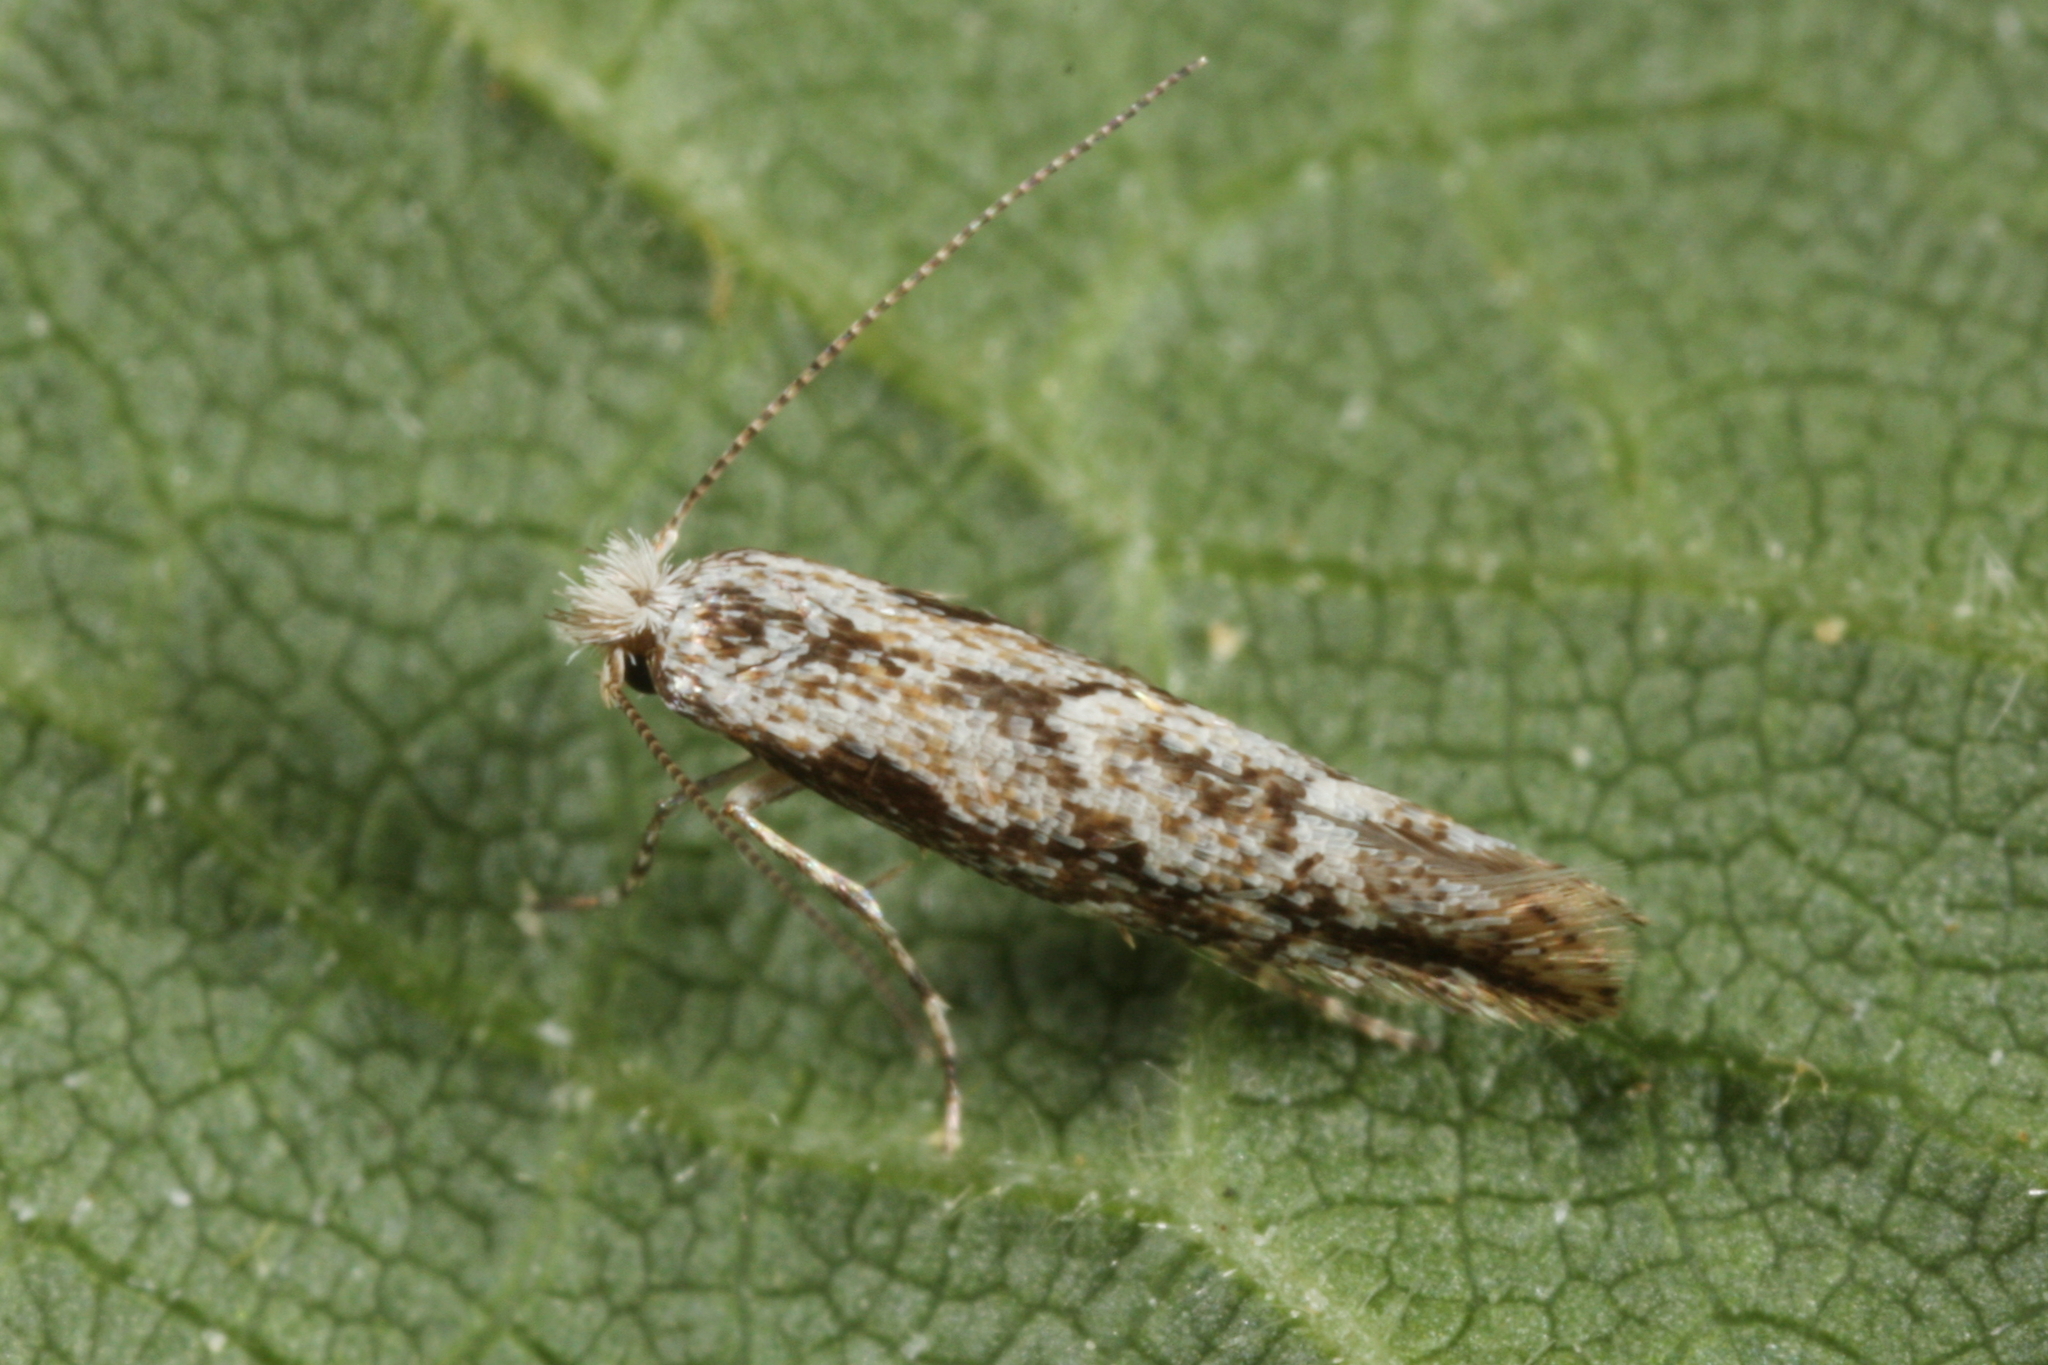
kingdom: Animalia
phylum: Arthropoda
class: Insecta
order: Lepidoptera
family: Gracillariidae
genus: Phyllonorycter
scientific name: Phyllonorycter issikii
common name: Linden midget
